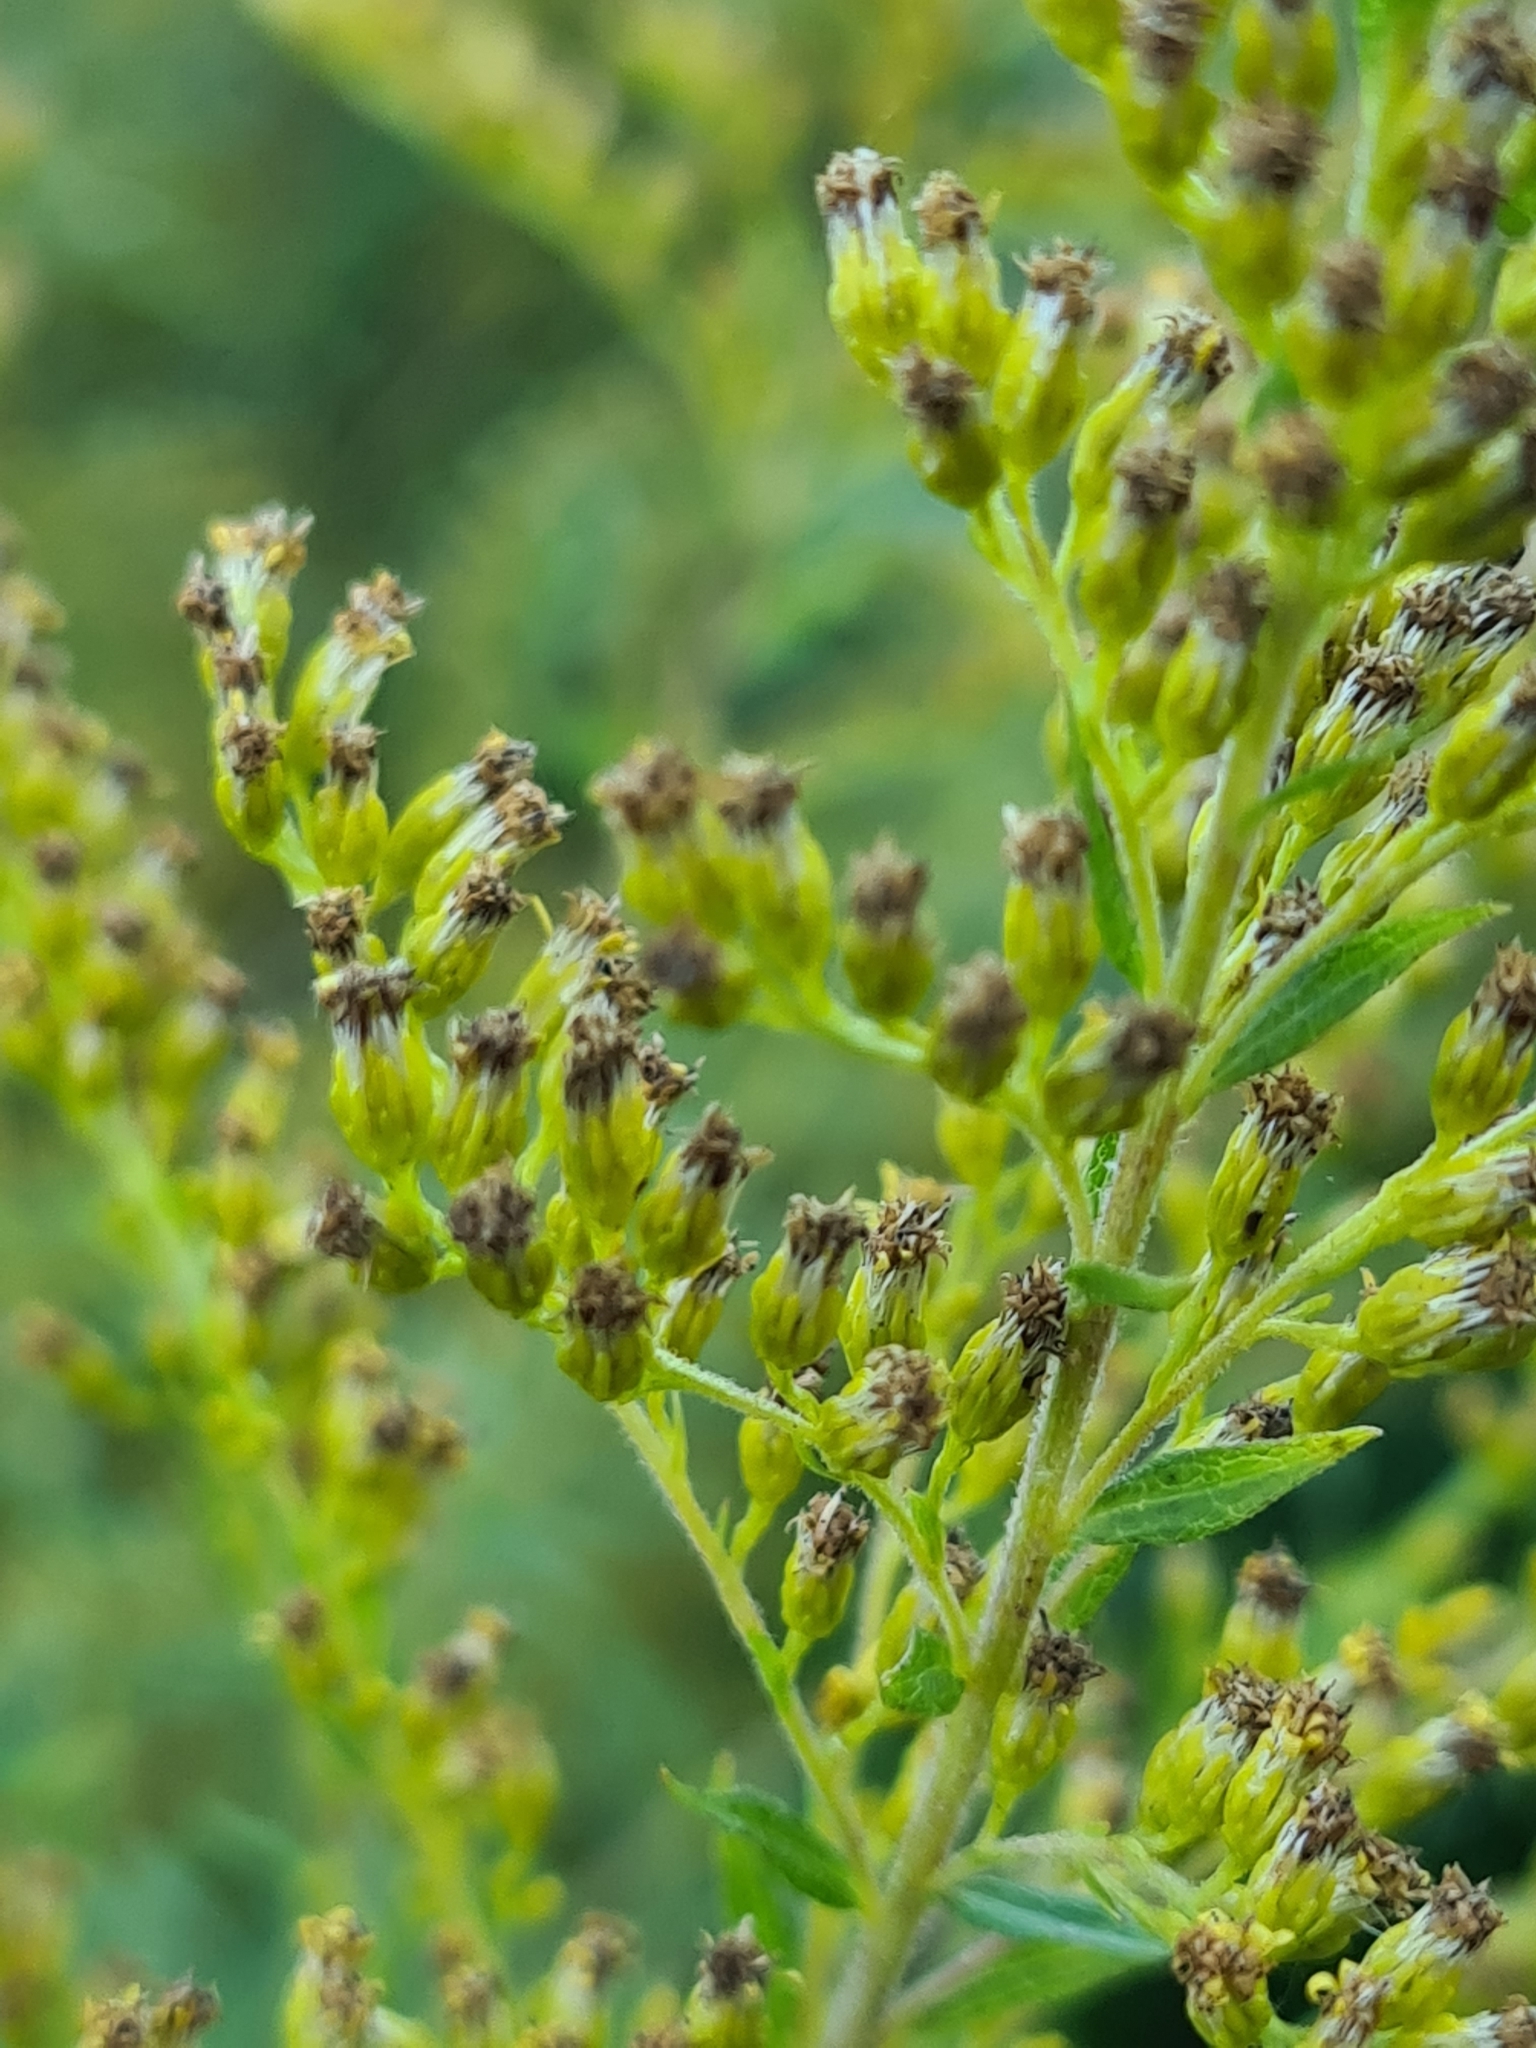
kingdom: Plantae
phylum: Tracheophyta
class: Magnoliopsida
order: Asterales
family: Asteraceae
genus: Solidago
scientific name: Solidago canadensis
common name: Canada goldenrod
